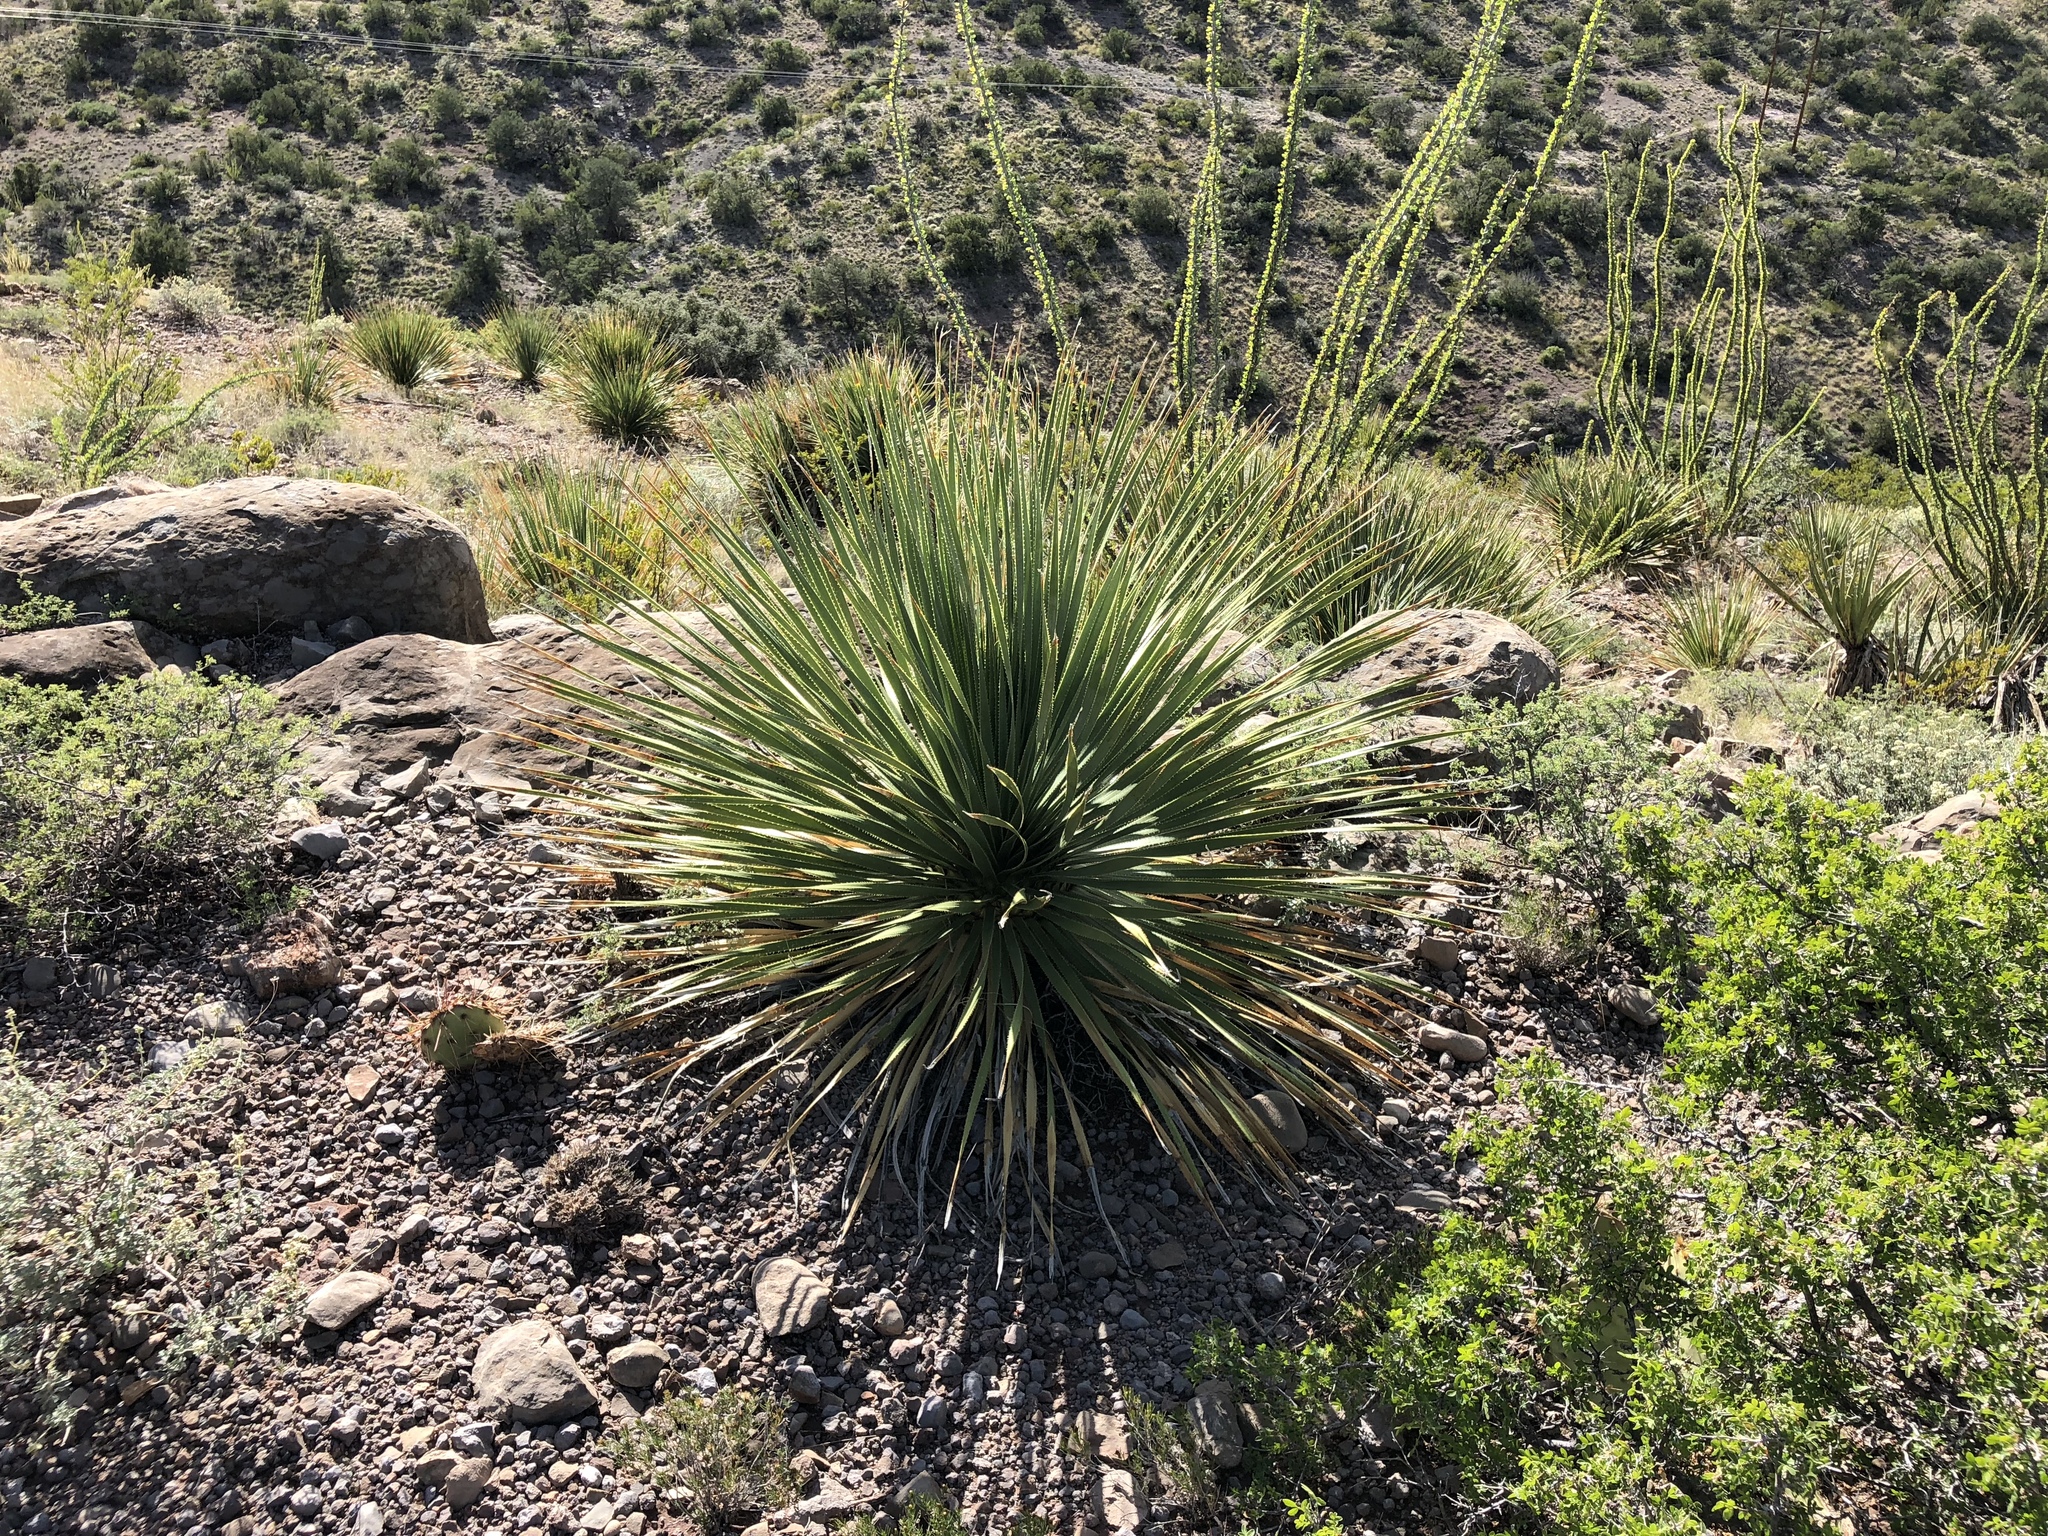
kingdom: Plantae
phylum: Tracheophyta
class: Liliopsida
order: Asparagales
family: Asparagaceae
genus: Dasylirion
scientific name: Dasylirion wheeleri
